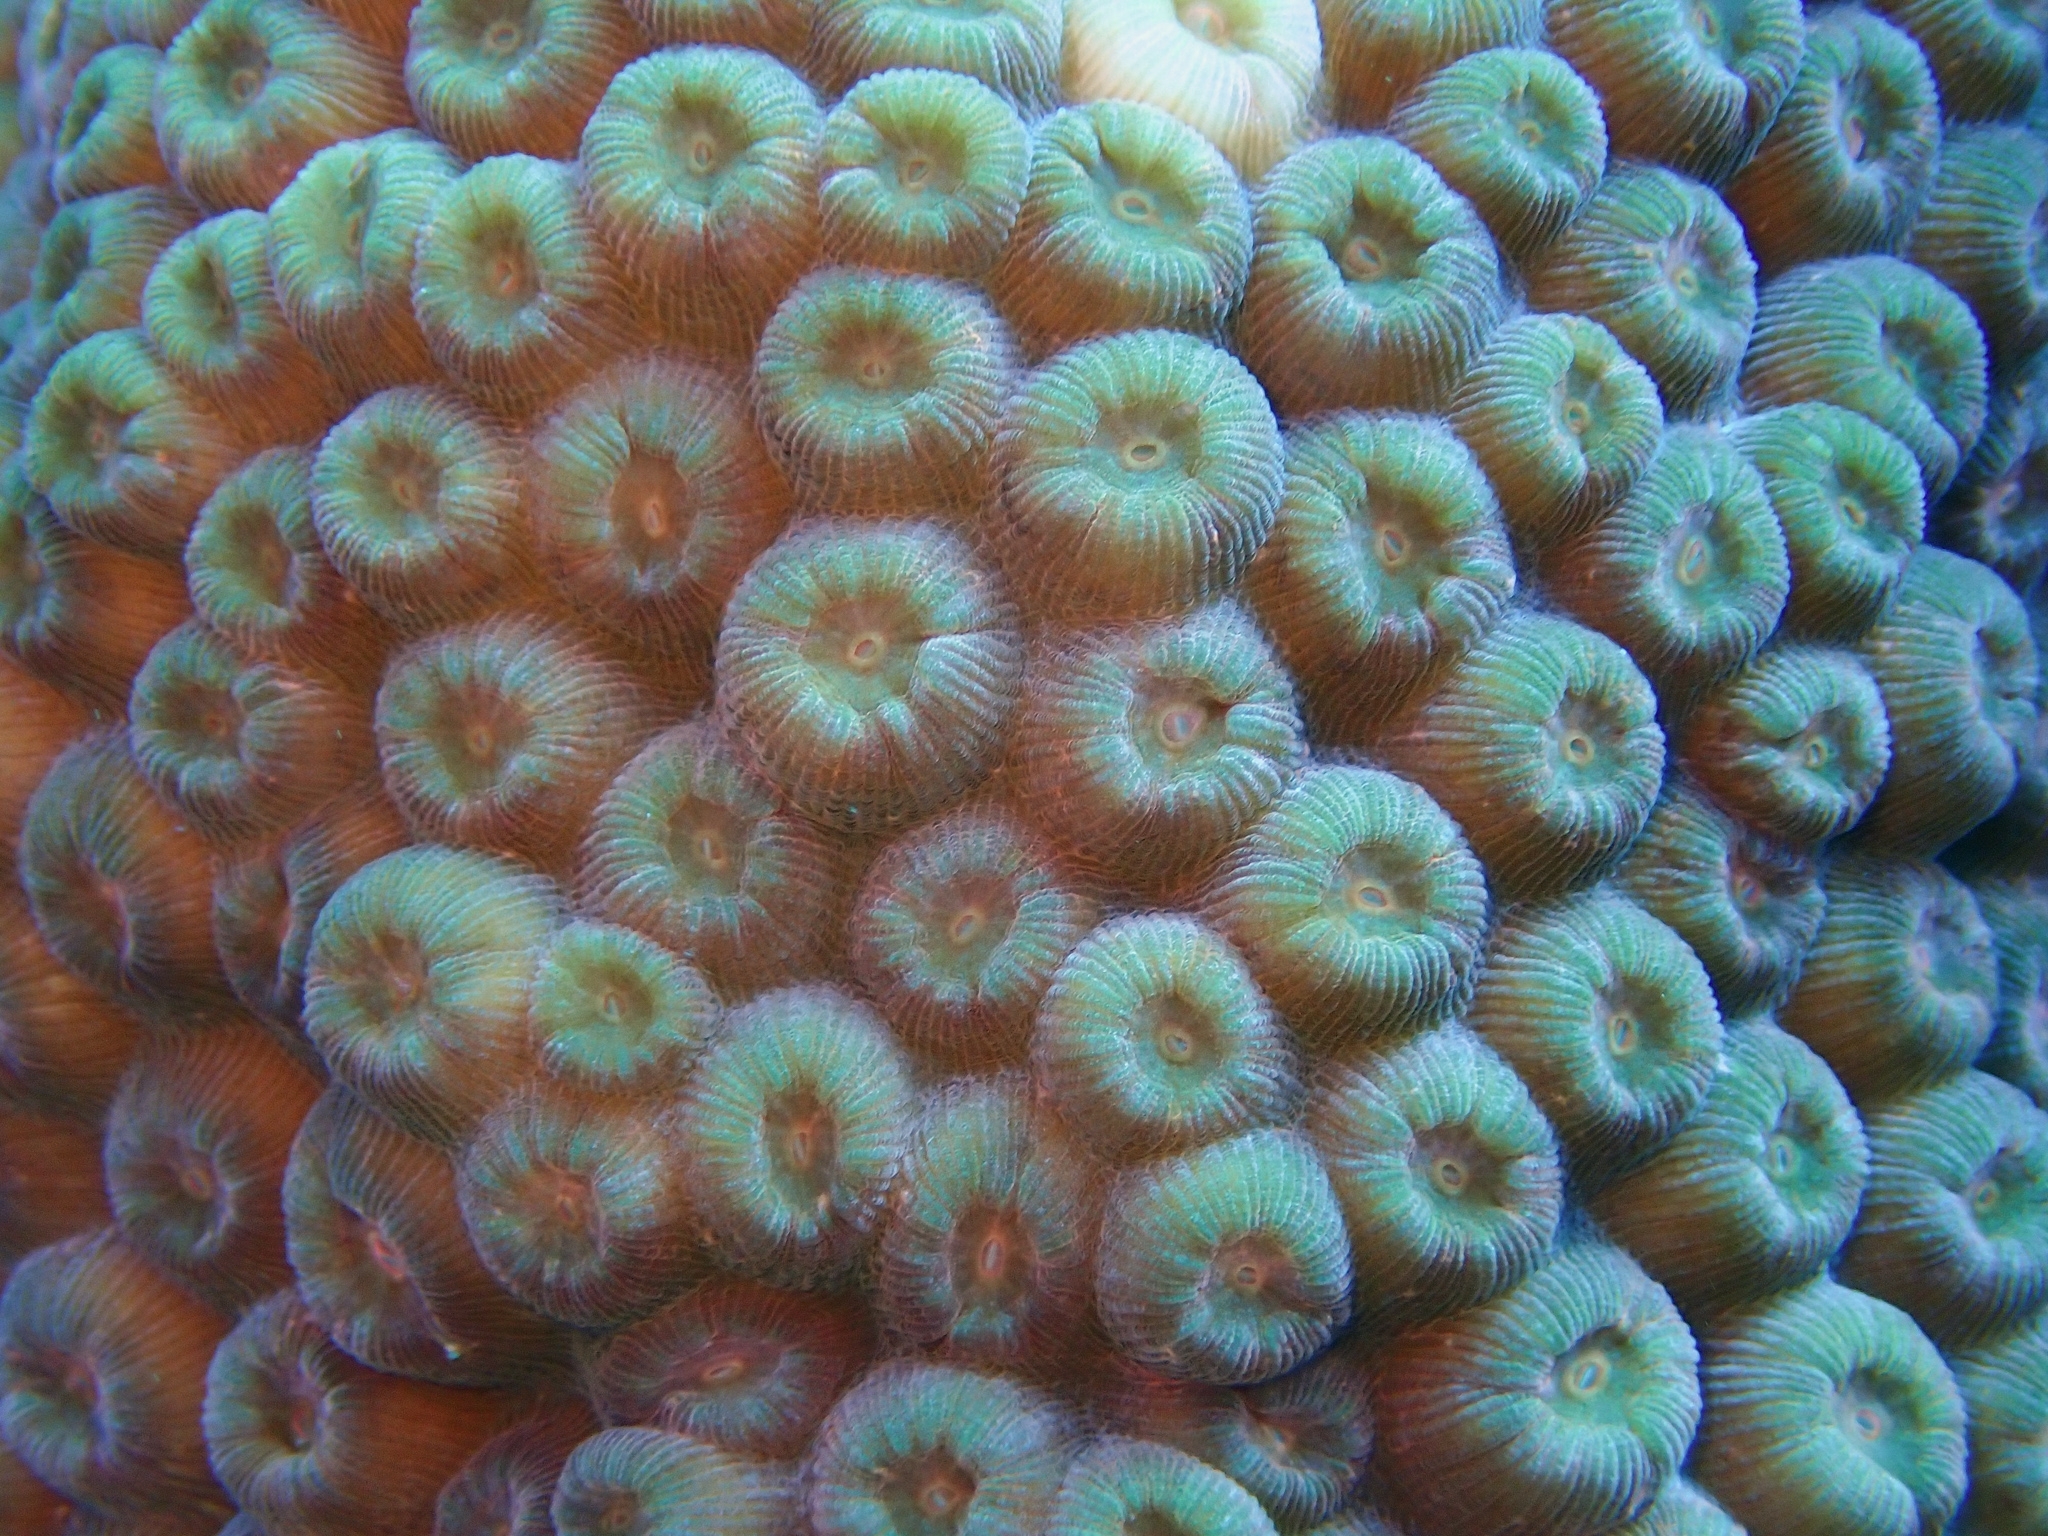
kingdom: Animalia
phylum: Cnidaria
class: Anthozoa
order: Scleractinia
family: Montastraeidae
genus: Montastraea
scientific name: Montastraea cavernosa
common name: Great star coral
